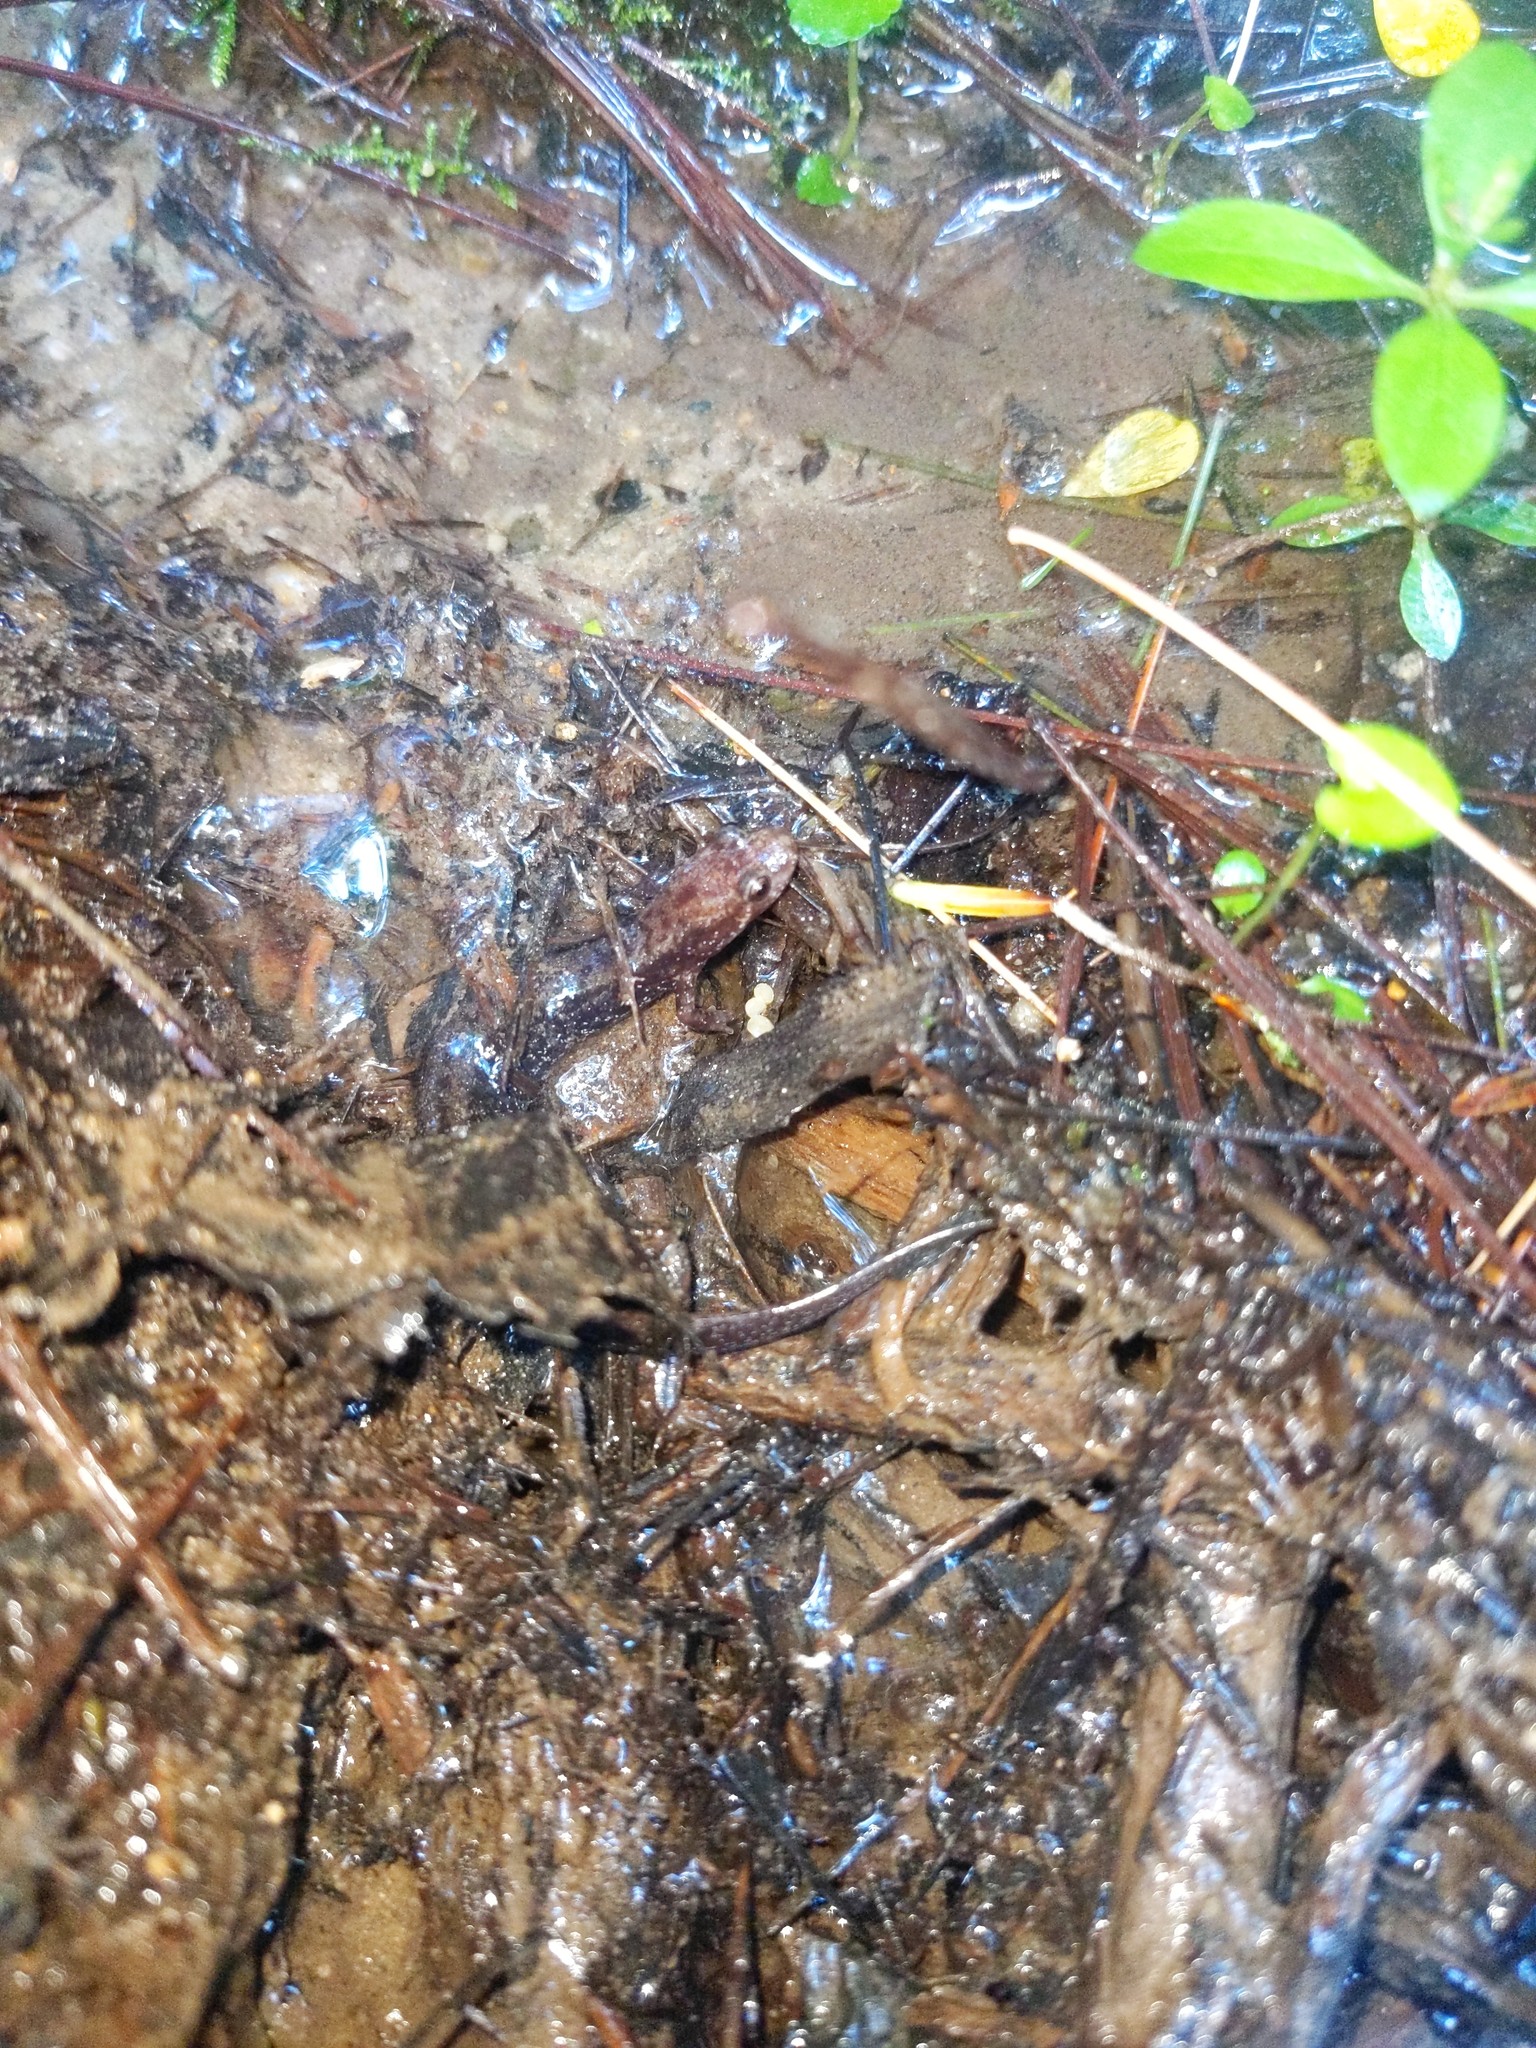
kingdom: Animalia
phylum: Chordata
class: Amphibia
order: Caudata
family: Plethodontidae
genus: Desmognathus
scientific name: Desmognathus ochrophaeus
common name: Allegheny mountain dusky salamander
